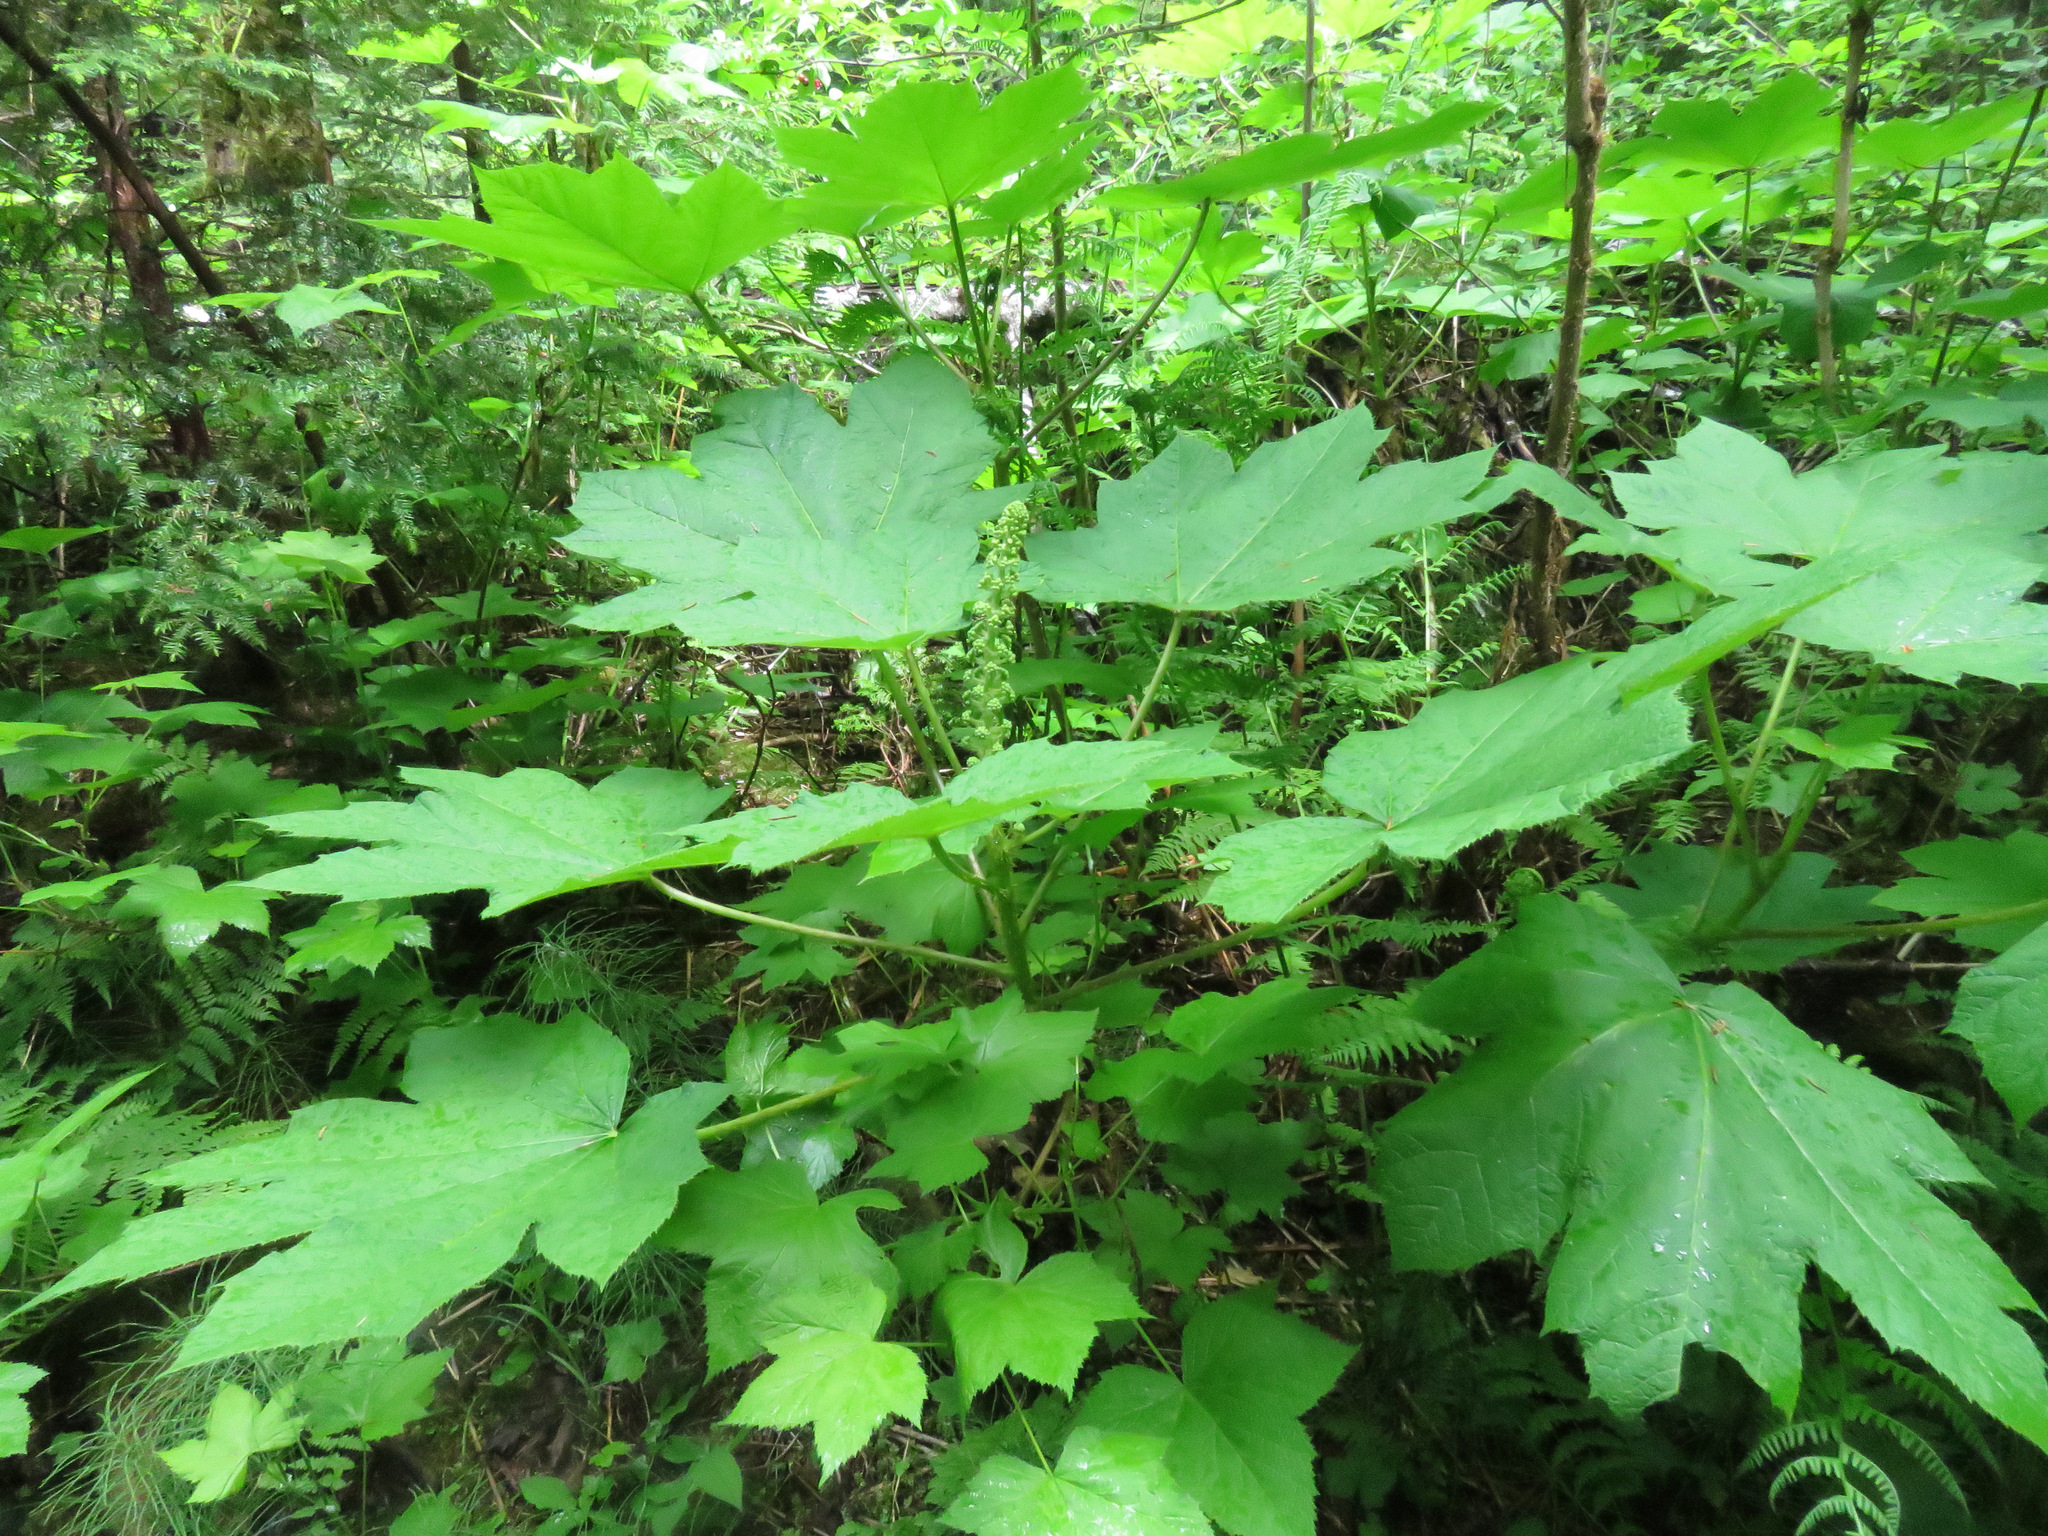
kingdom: Plantae
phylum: Tracheophyta
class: Magnoliopsida
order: Apiales
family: Araliaceae
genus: Oplopanax
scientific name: Oplopanax horridus
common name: Devil's walking-stick
